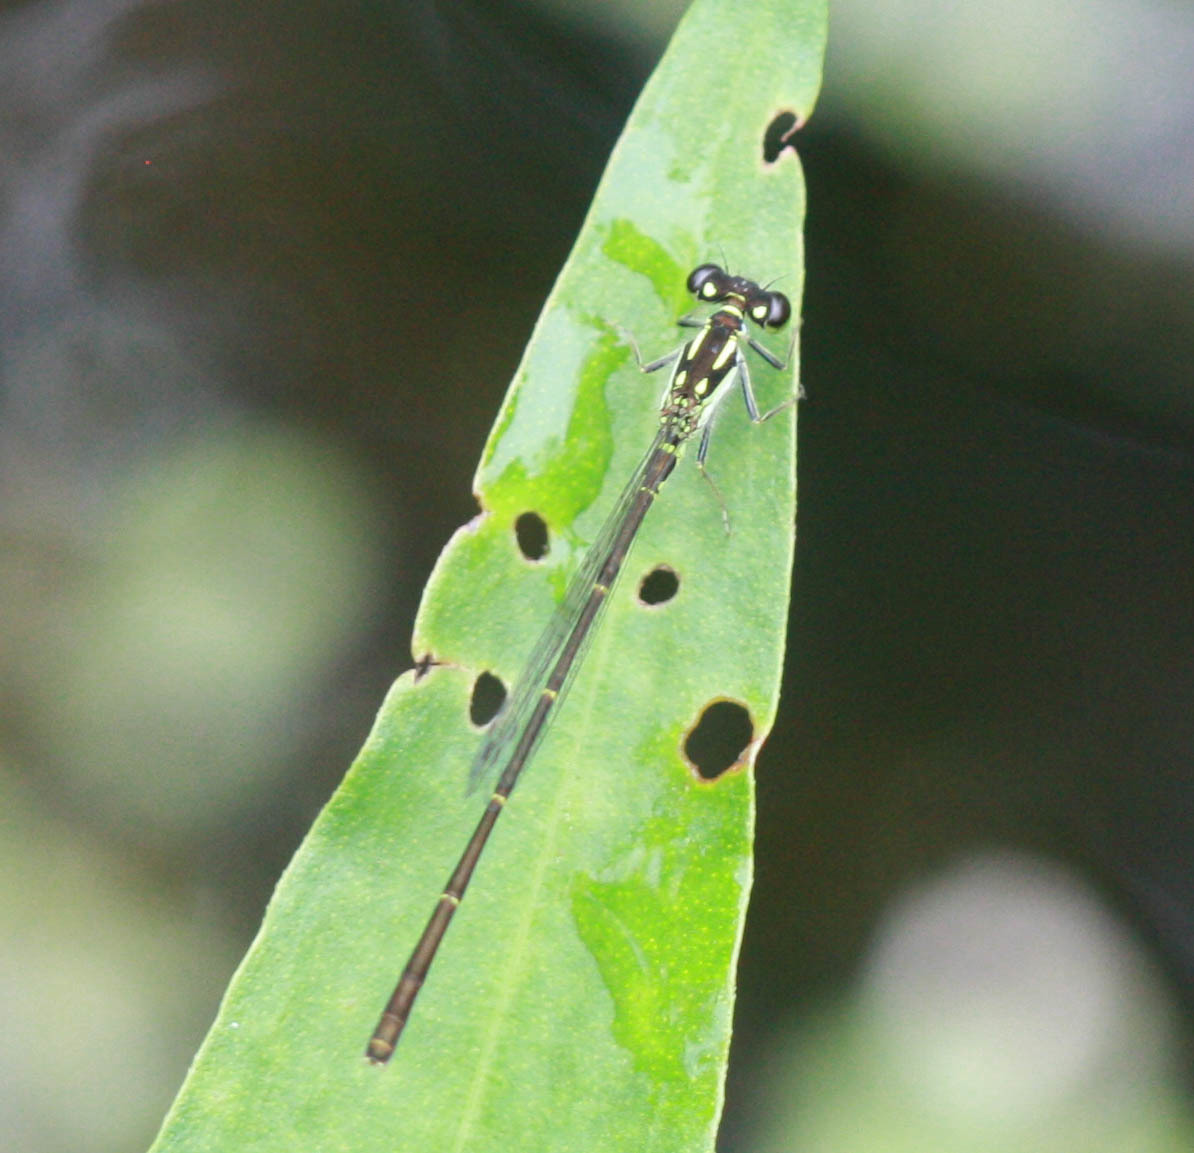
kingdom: Animalia
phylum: Arthropoda
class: Insecta
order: Odonata
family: Coenagrionidae
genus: Ischnura
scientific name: Ischnura posita
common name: Fragile forktail
